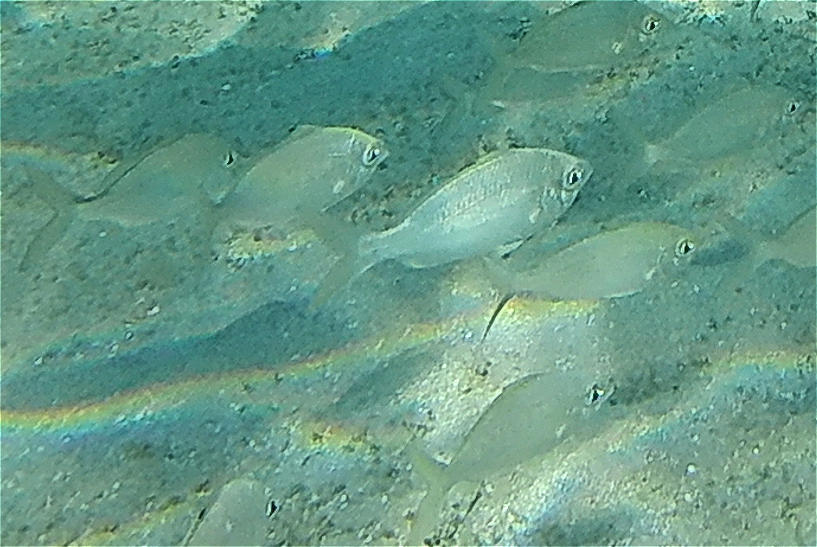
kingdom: Animalia
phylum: Chordata
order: Perciformes
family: Gerreidae
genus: Gerres
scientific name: Gerres longirostris
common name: Strongspine silver-biddy
